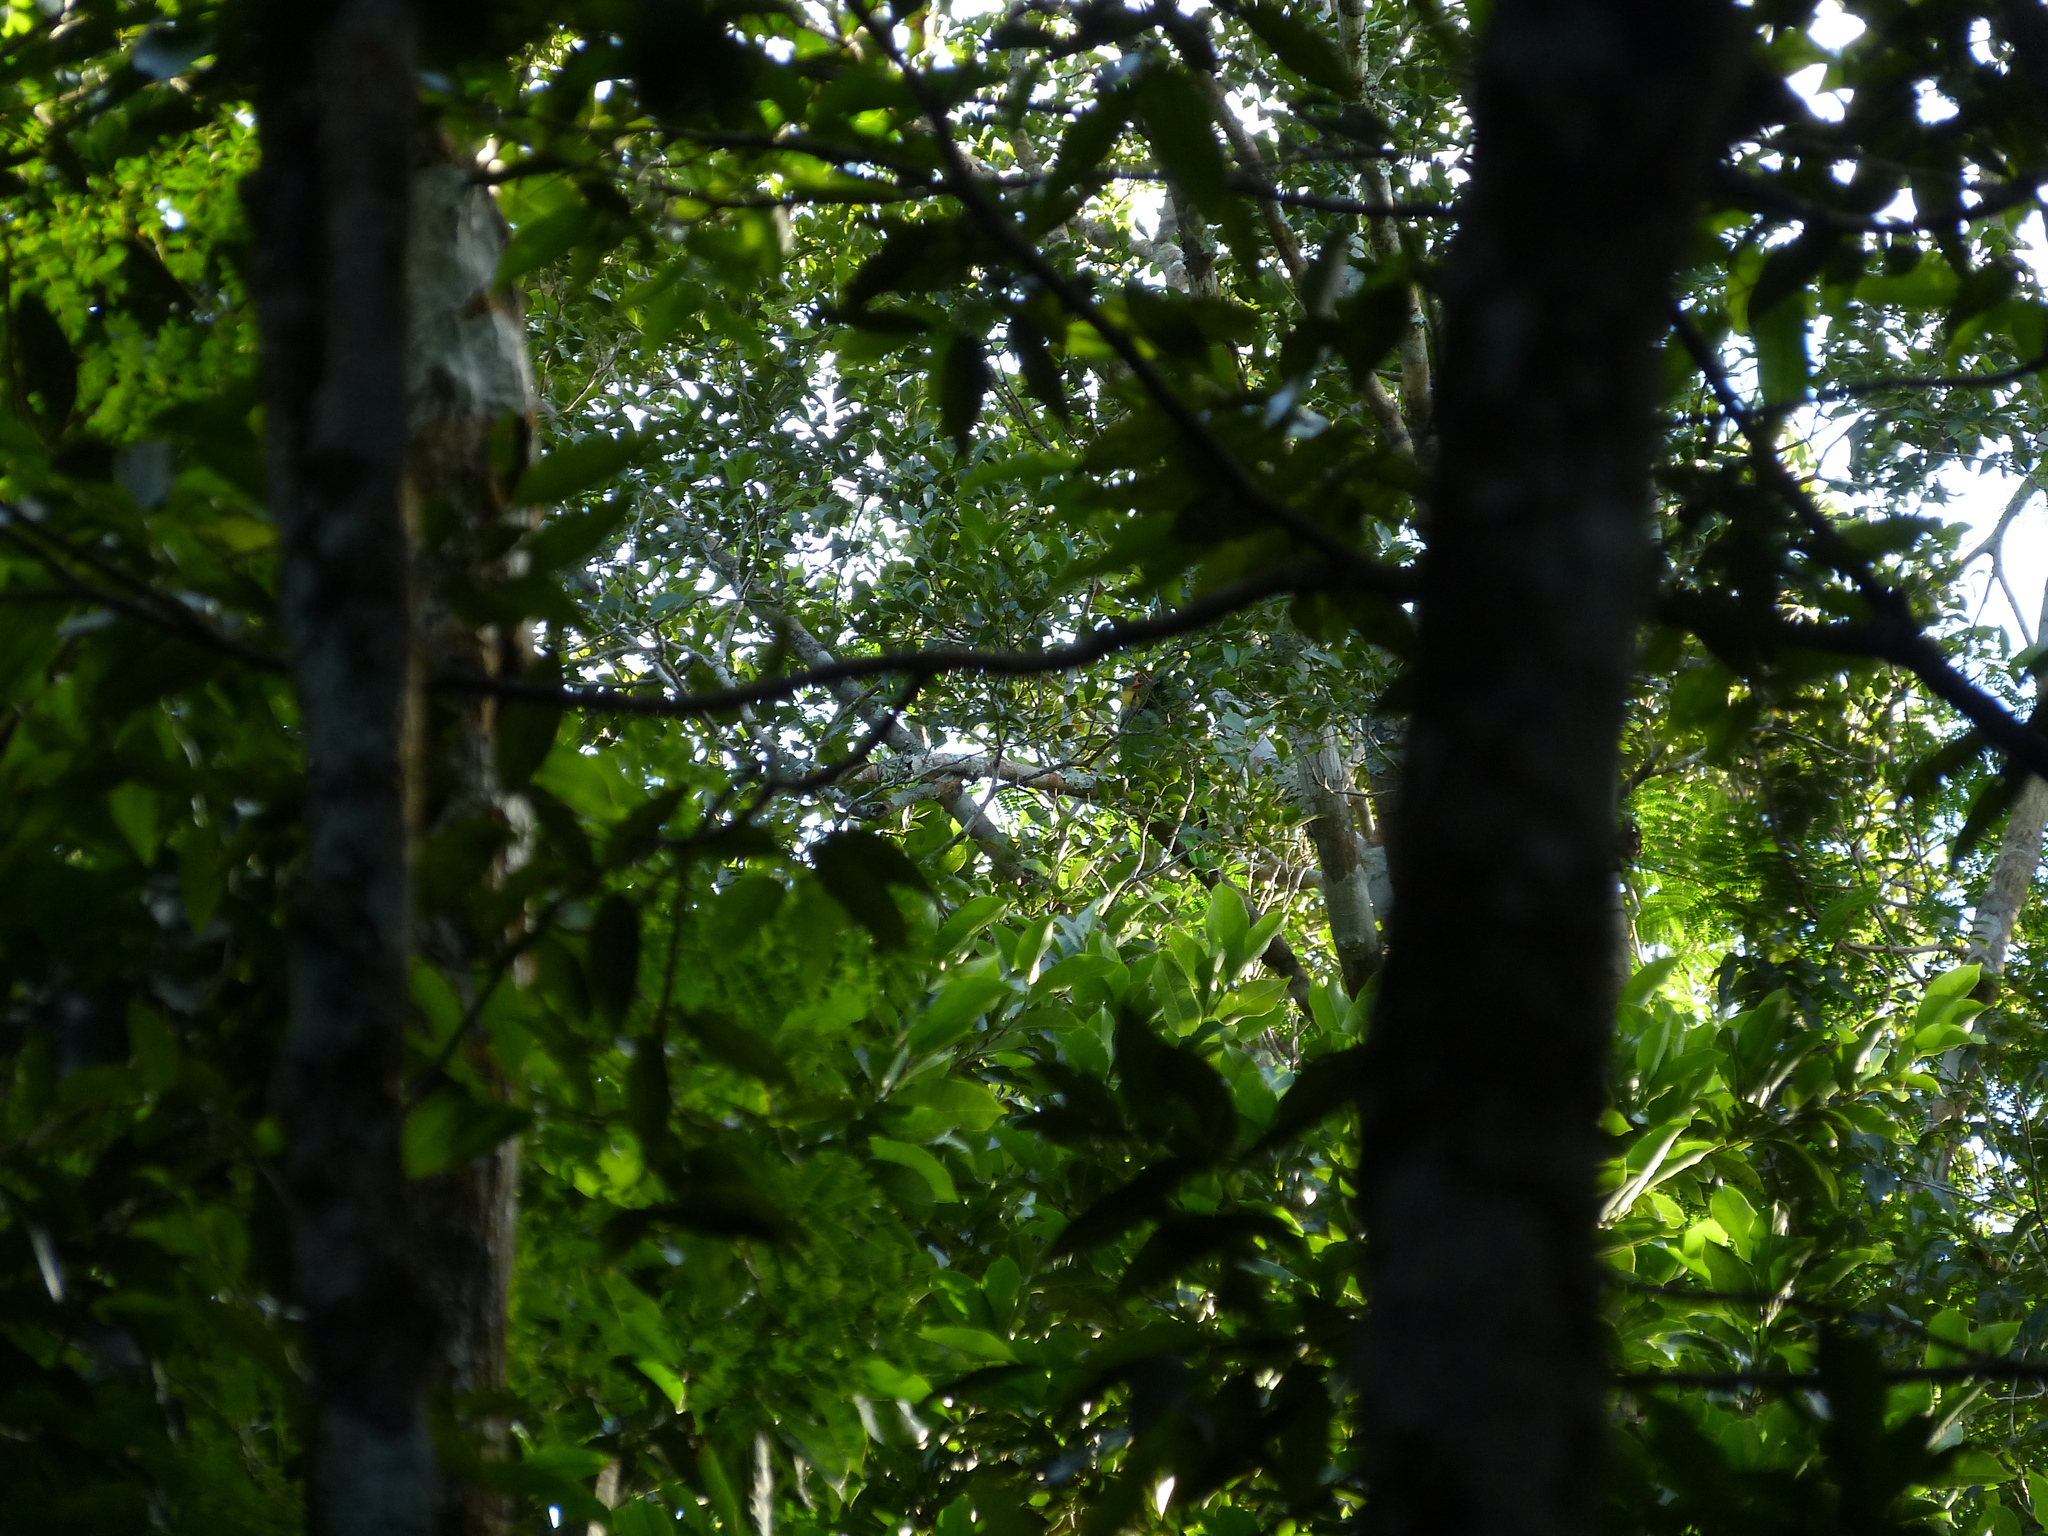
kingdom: Animalia
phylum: Chordata
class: Aves
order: Psittaciformes
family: Psittacidae
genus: Amazona
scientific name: Amazona xantholora
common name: Yucatan amazon
